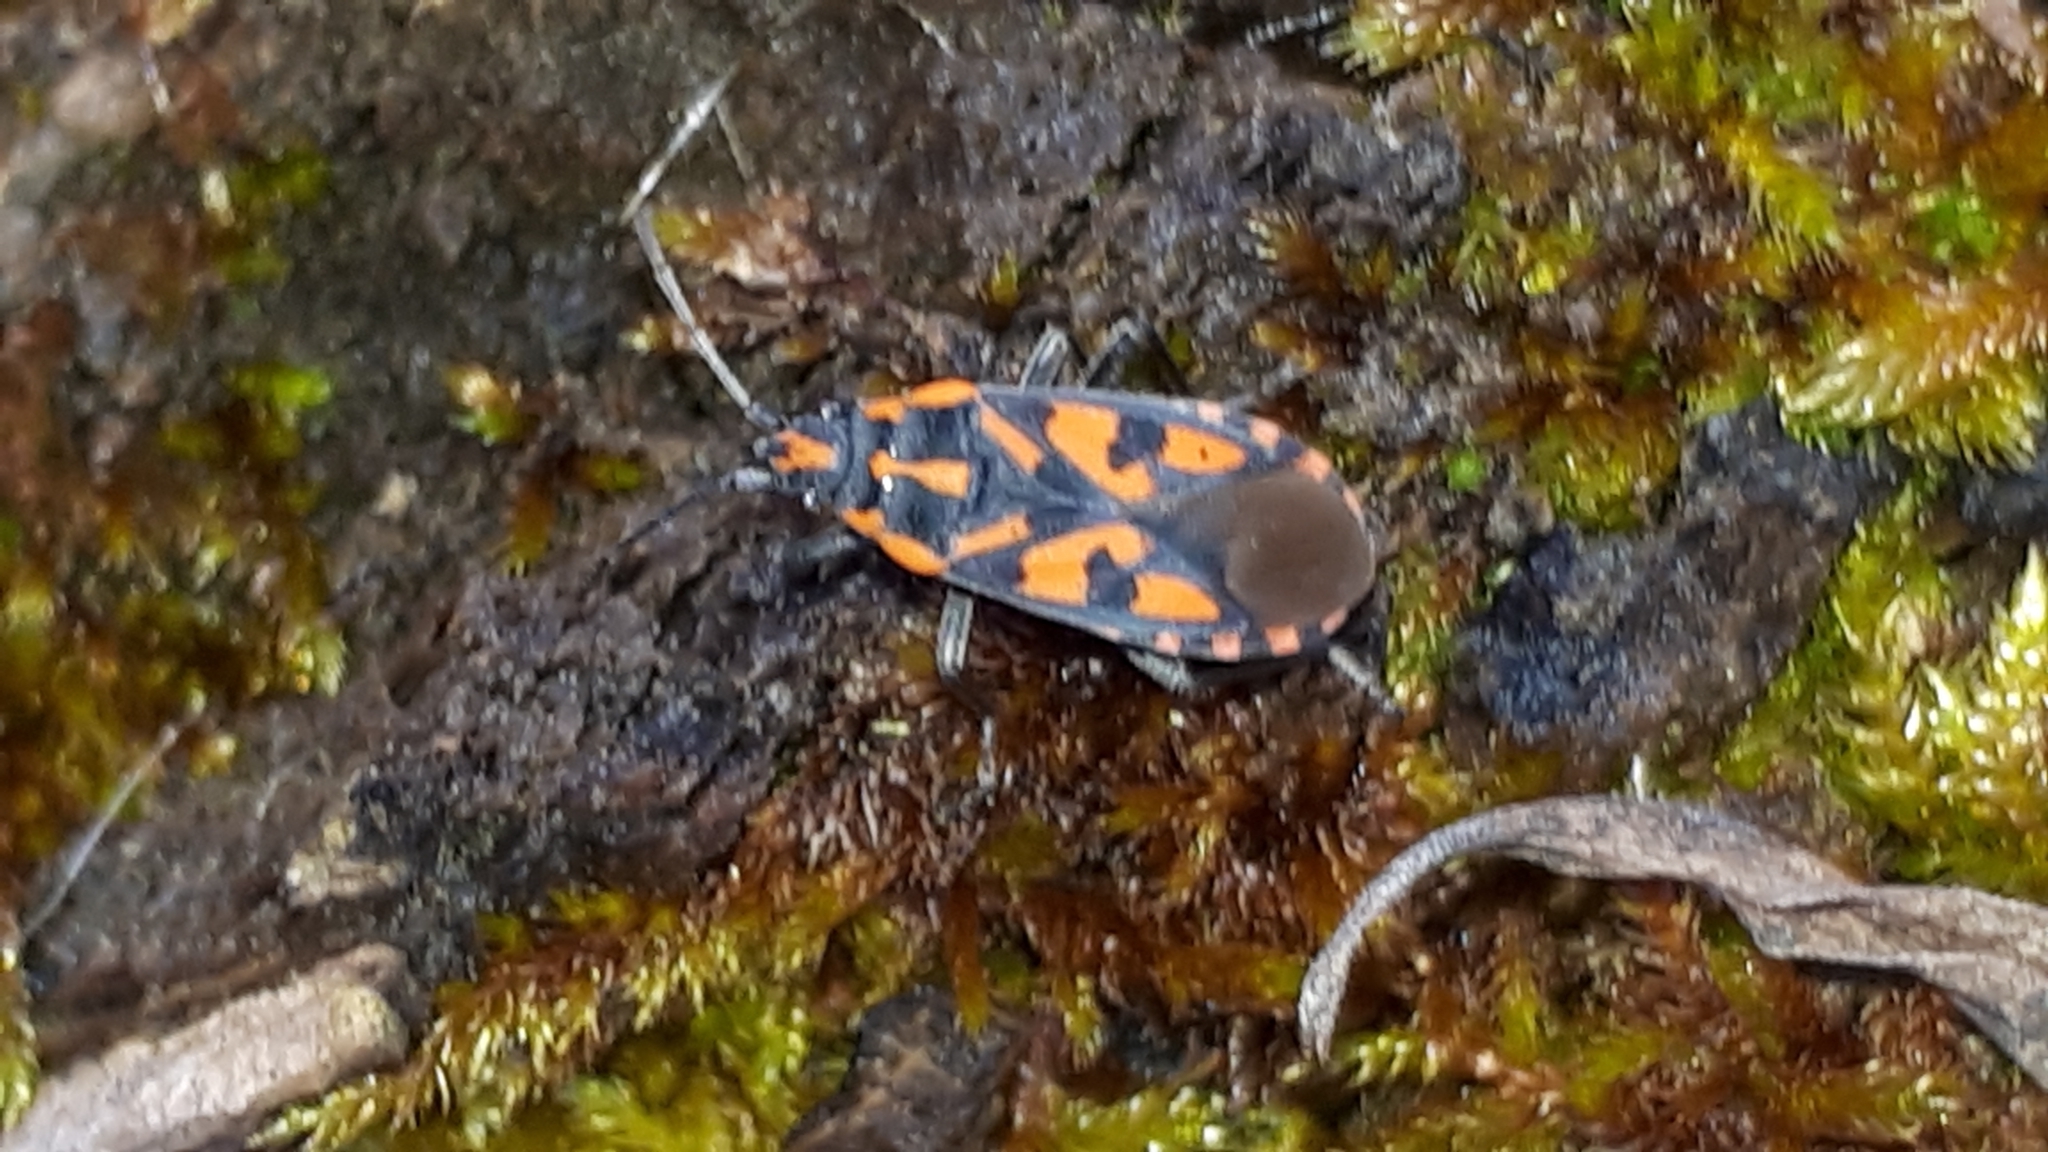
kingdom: Animalia
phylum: Arthropoda
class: Insecta
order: Hemiptera
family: Lygaeidae
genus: Spilostethus
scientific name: Spilostethus saxatilis
